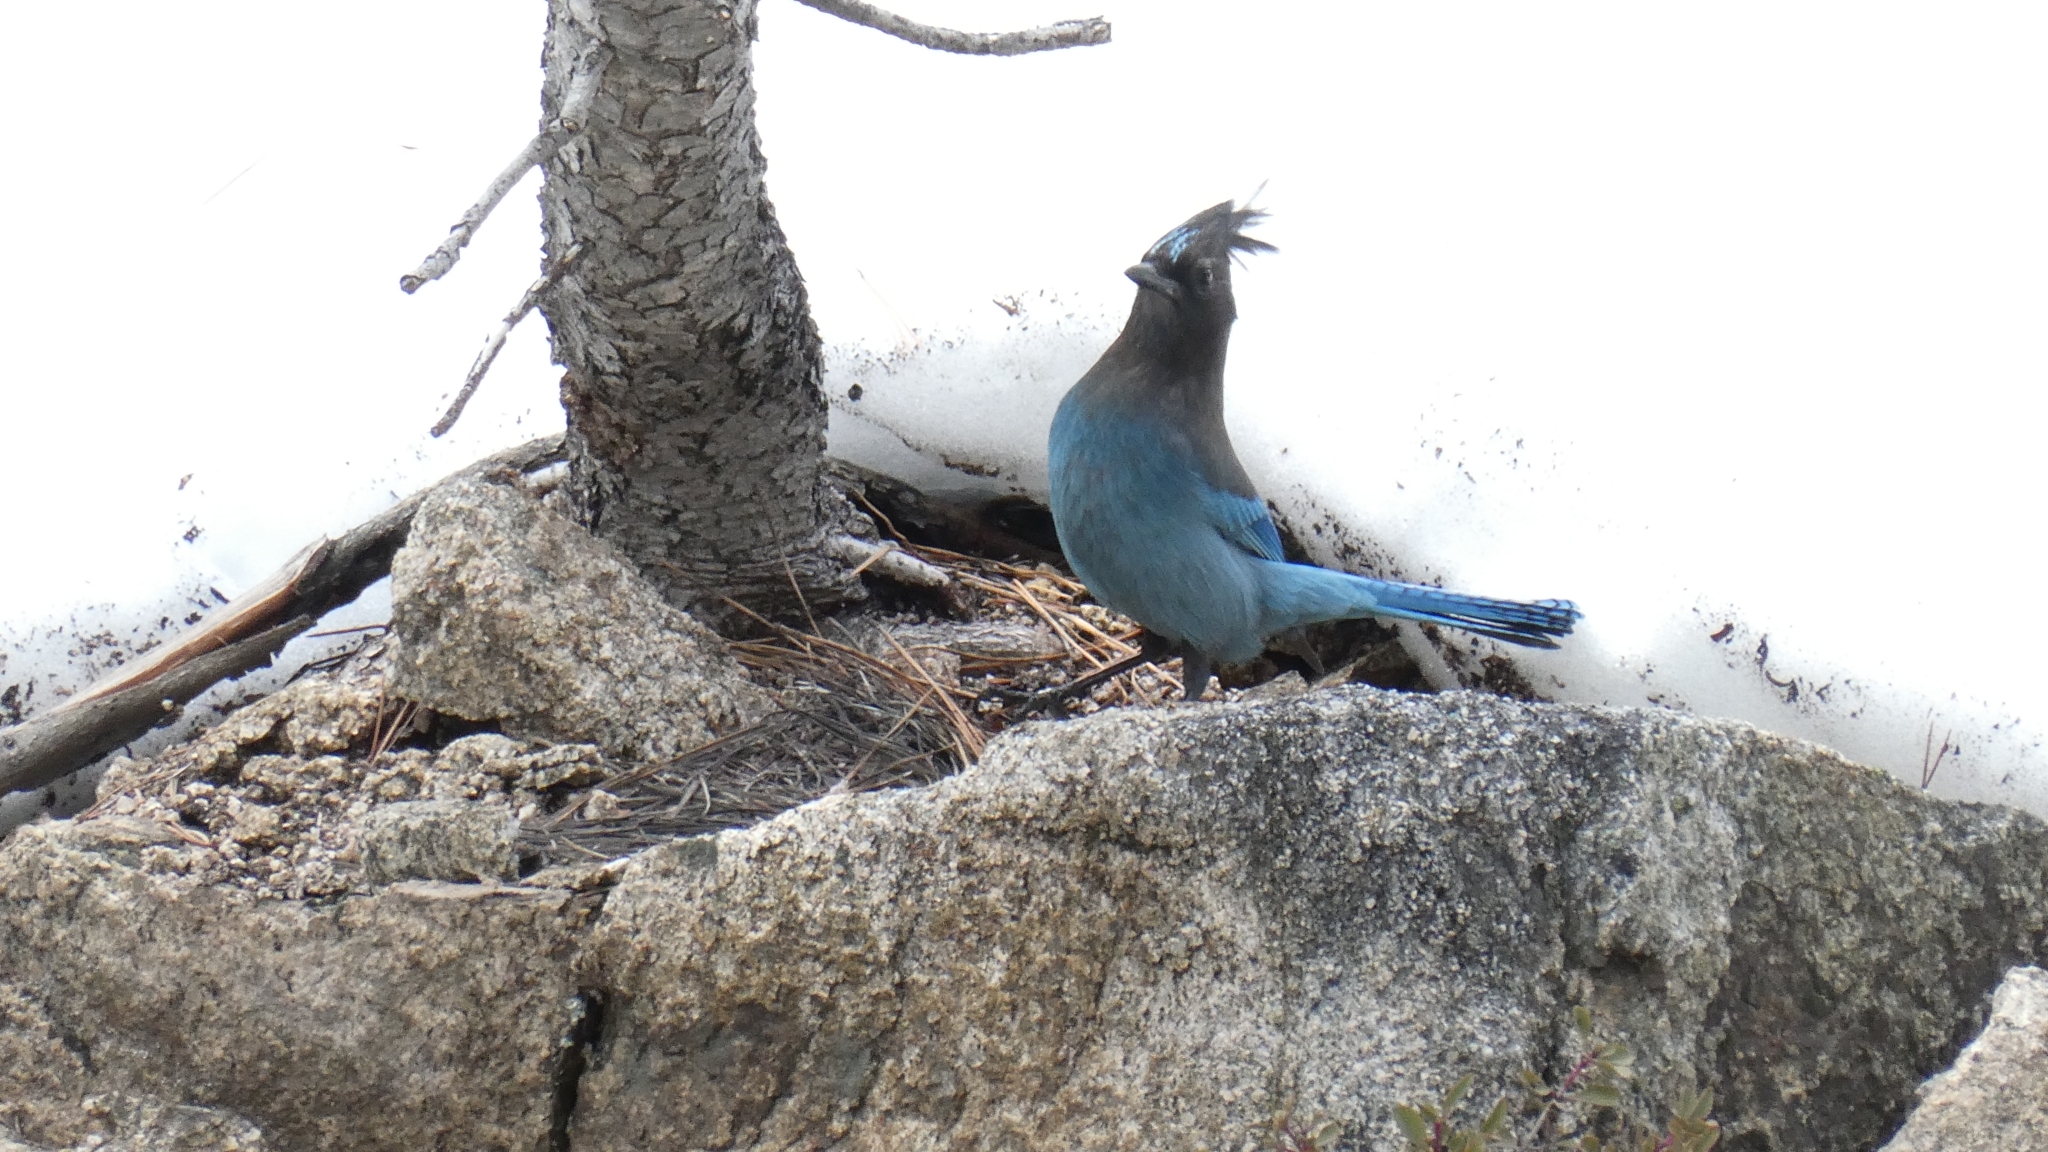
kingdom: Animalia
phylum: Chordata
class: Aves
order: Passeriformes
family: Corvidae
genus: Cyanocitta
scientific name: Cyanocitta stelleri
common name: Steller's jay
